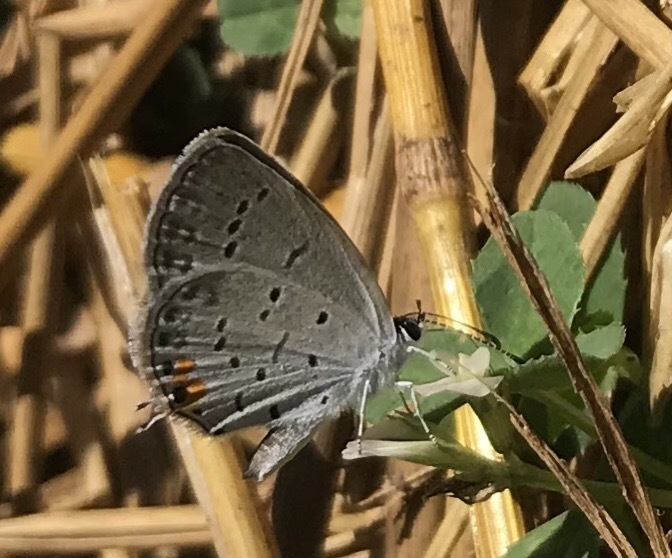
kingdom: Animalia
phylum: Arthropoda
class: Insecta
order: Lepidoptera
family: Lycaenidae
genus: Elkalyce
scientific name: Elkalyce comyntas
